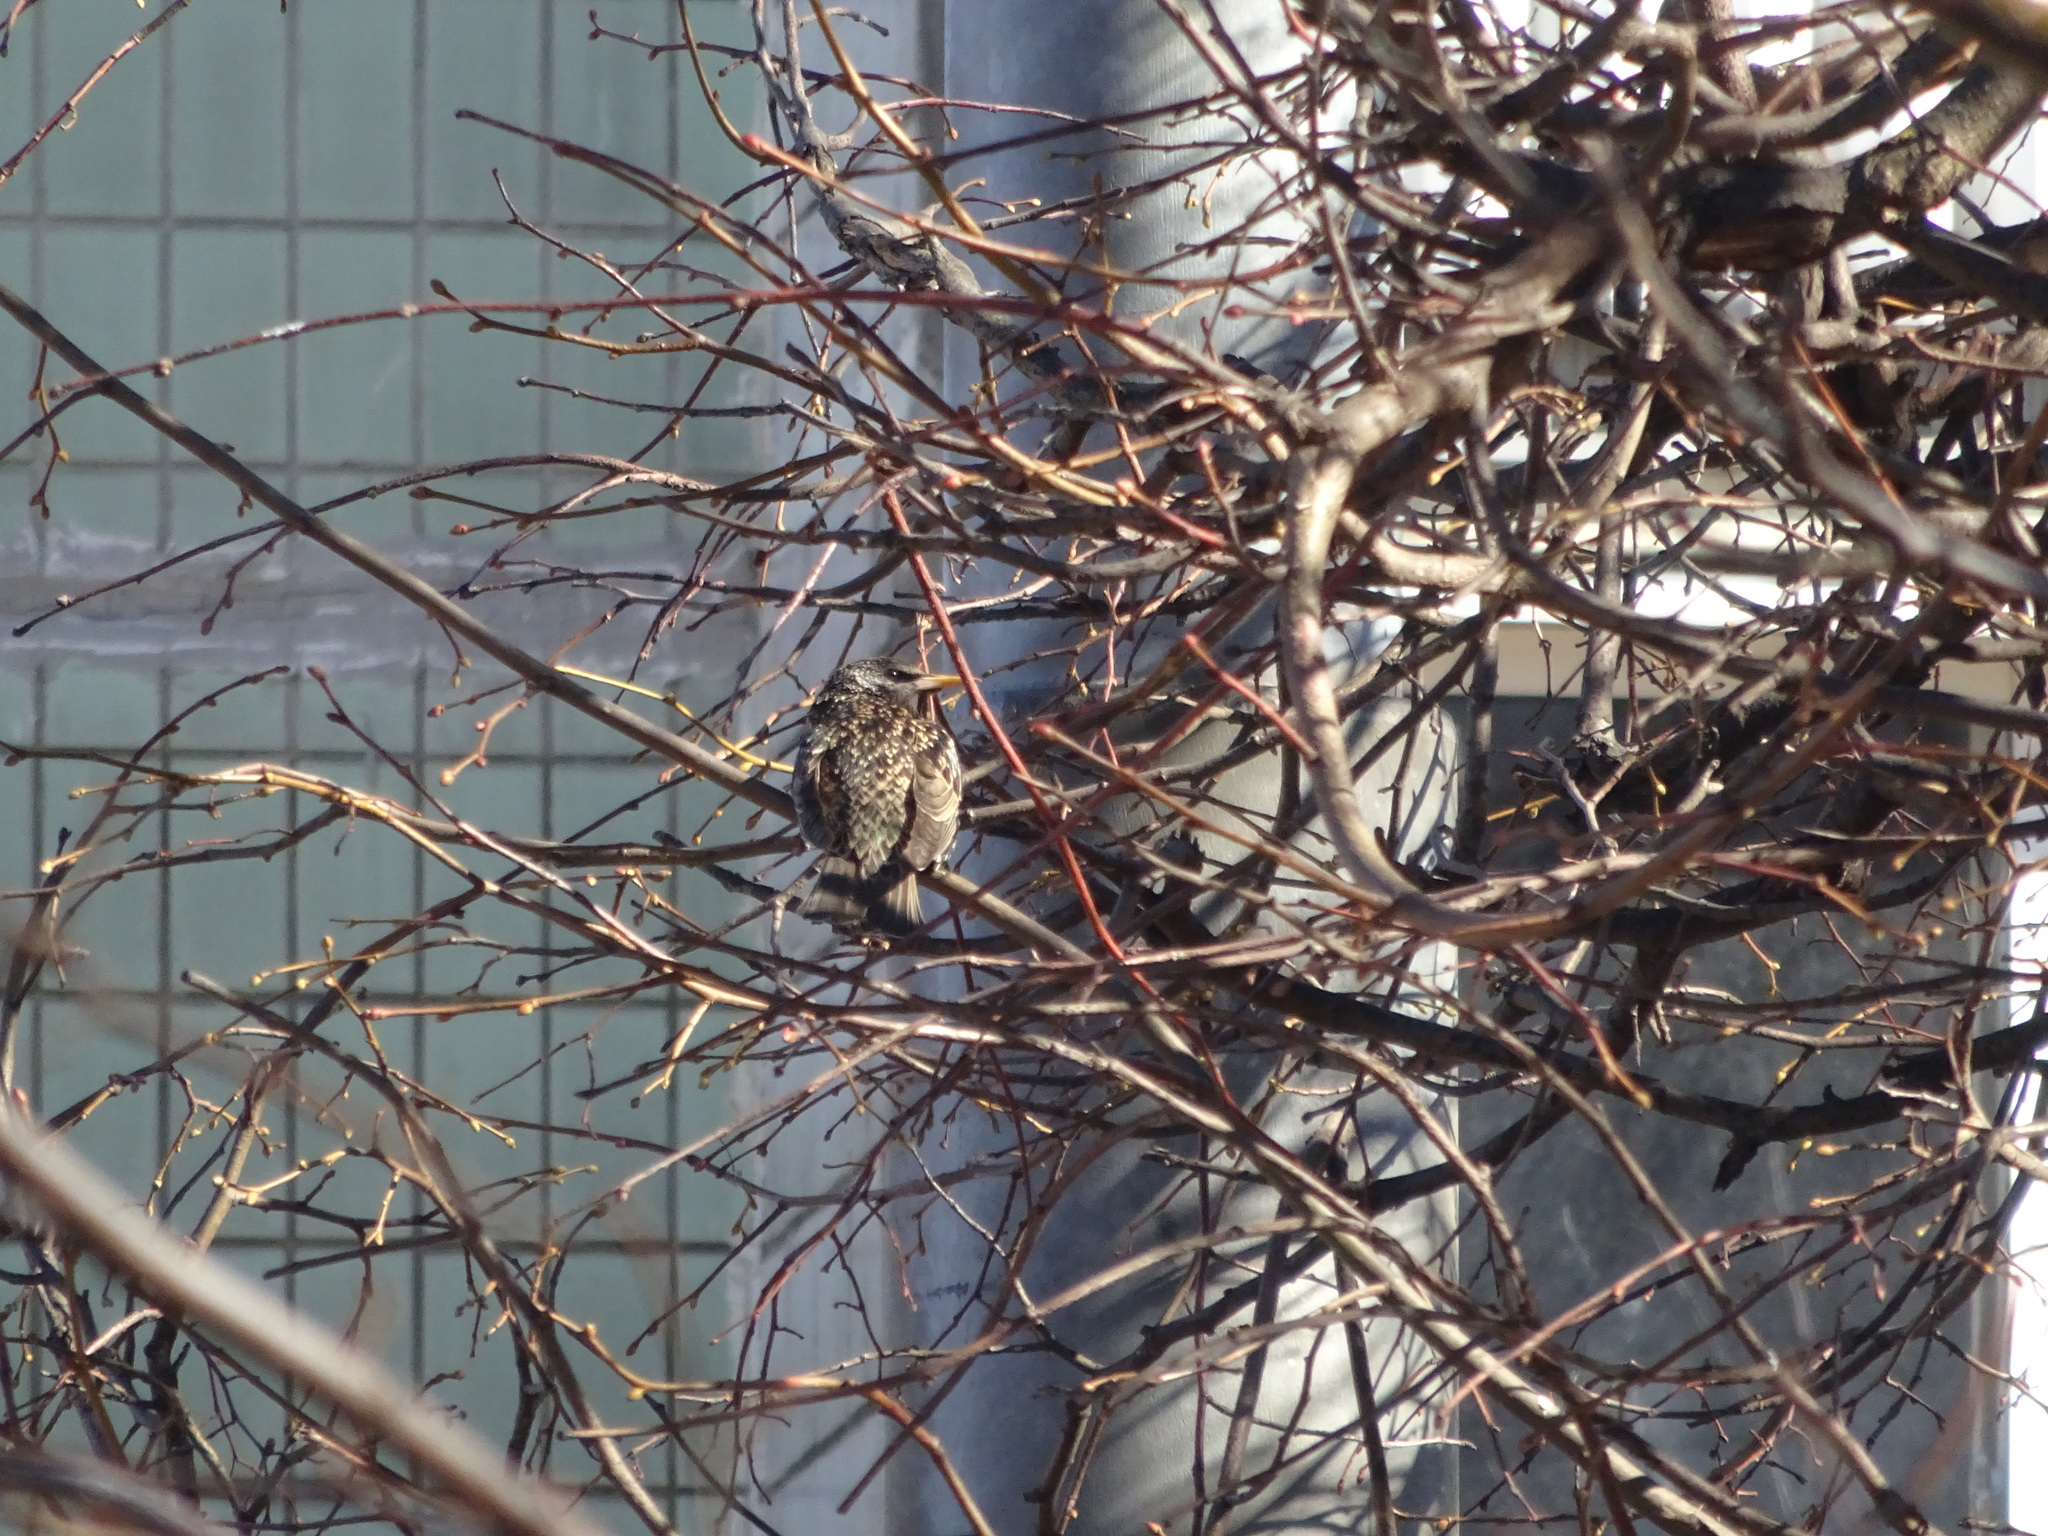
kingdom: Animalia
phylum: Chordata
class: Aves
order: Passeriformes
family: Sturnidae
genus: Sturnus
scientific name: Sturnus vulgaris
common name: Common starling
